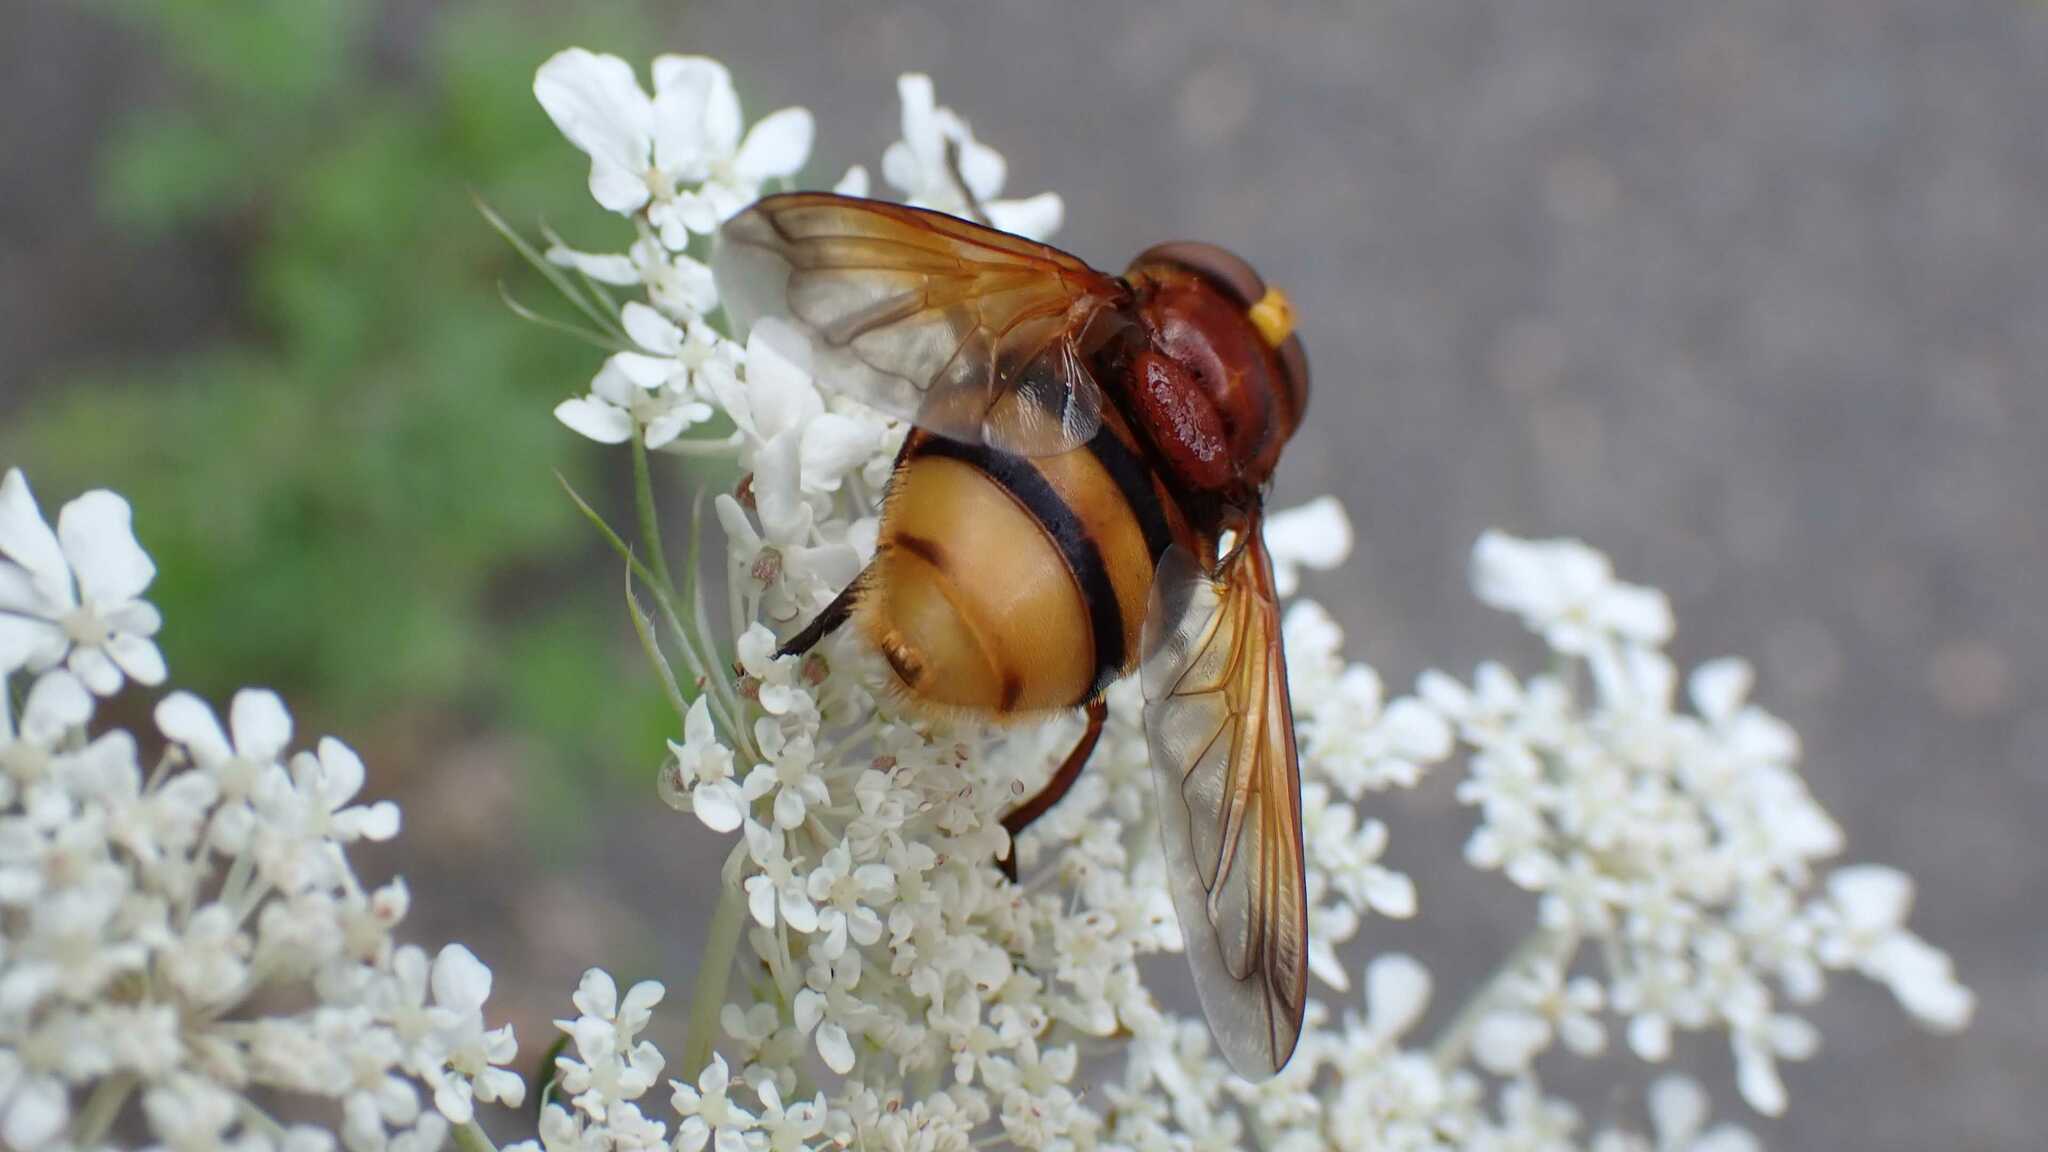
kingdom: Animalia
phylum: Arthropoda
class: Insecta
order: Diptera
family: Syrphidae
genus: Volucella
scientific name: Volucella zonaria
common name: Hornet hoverfly
